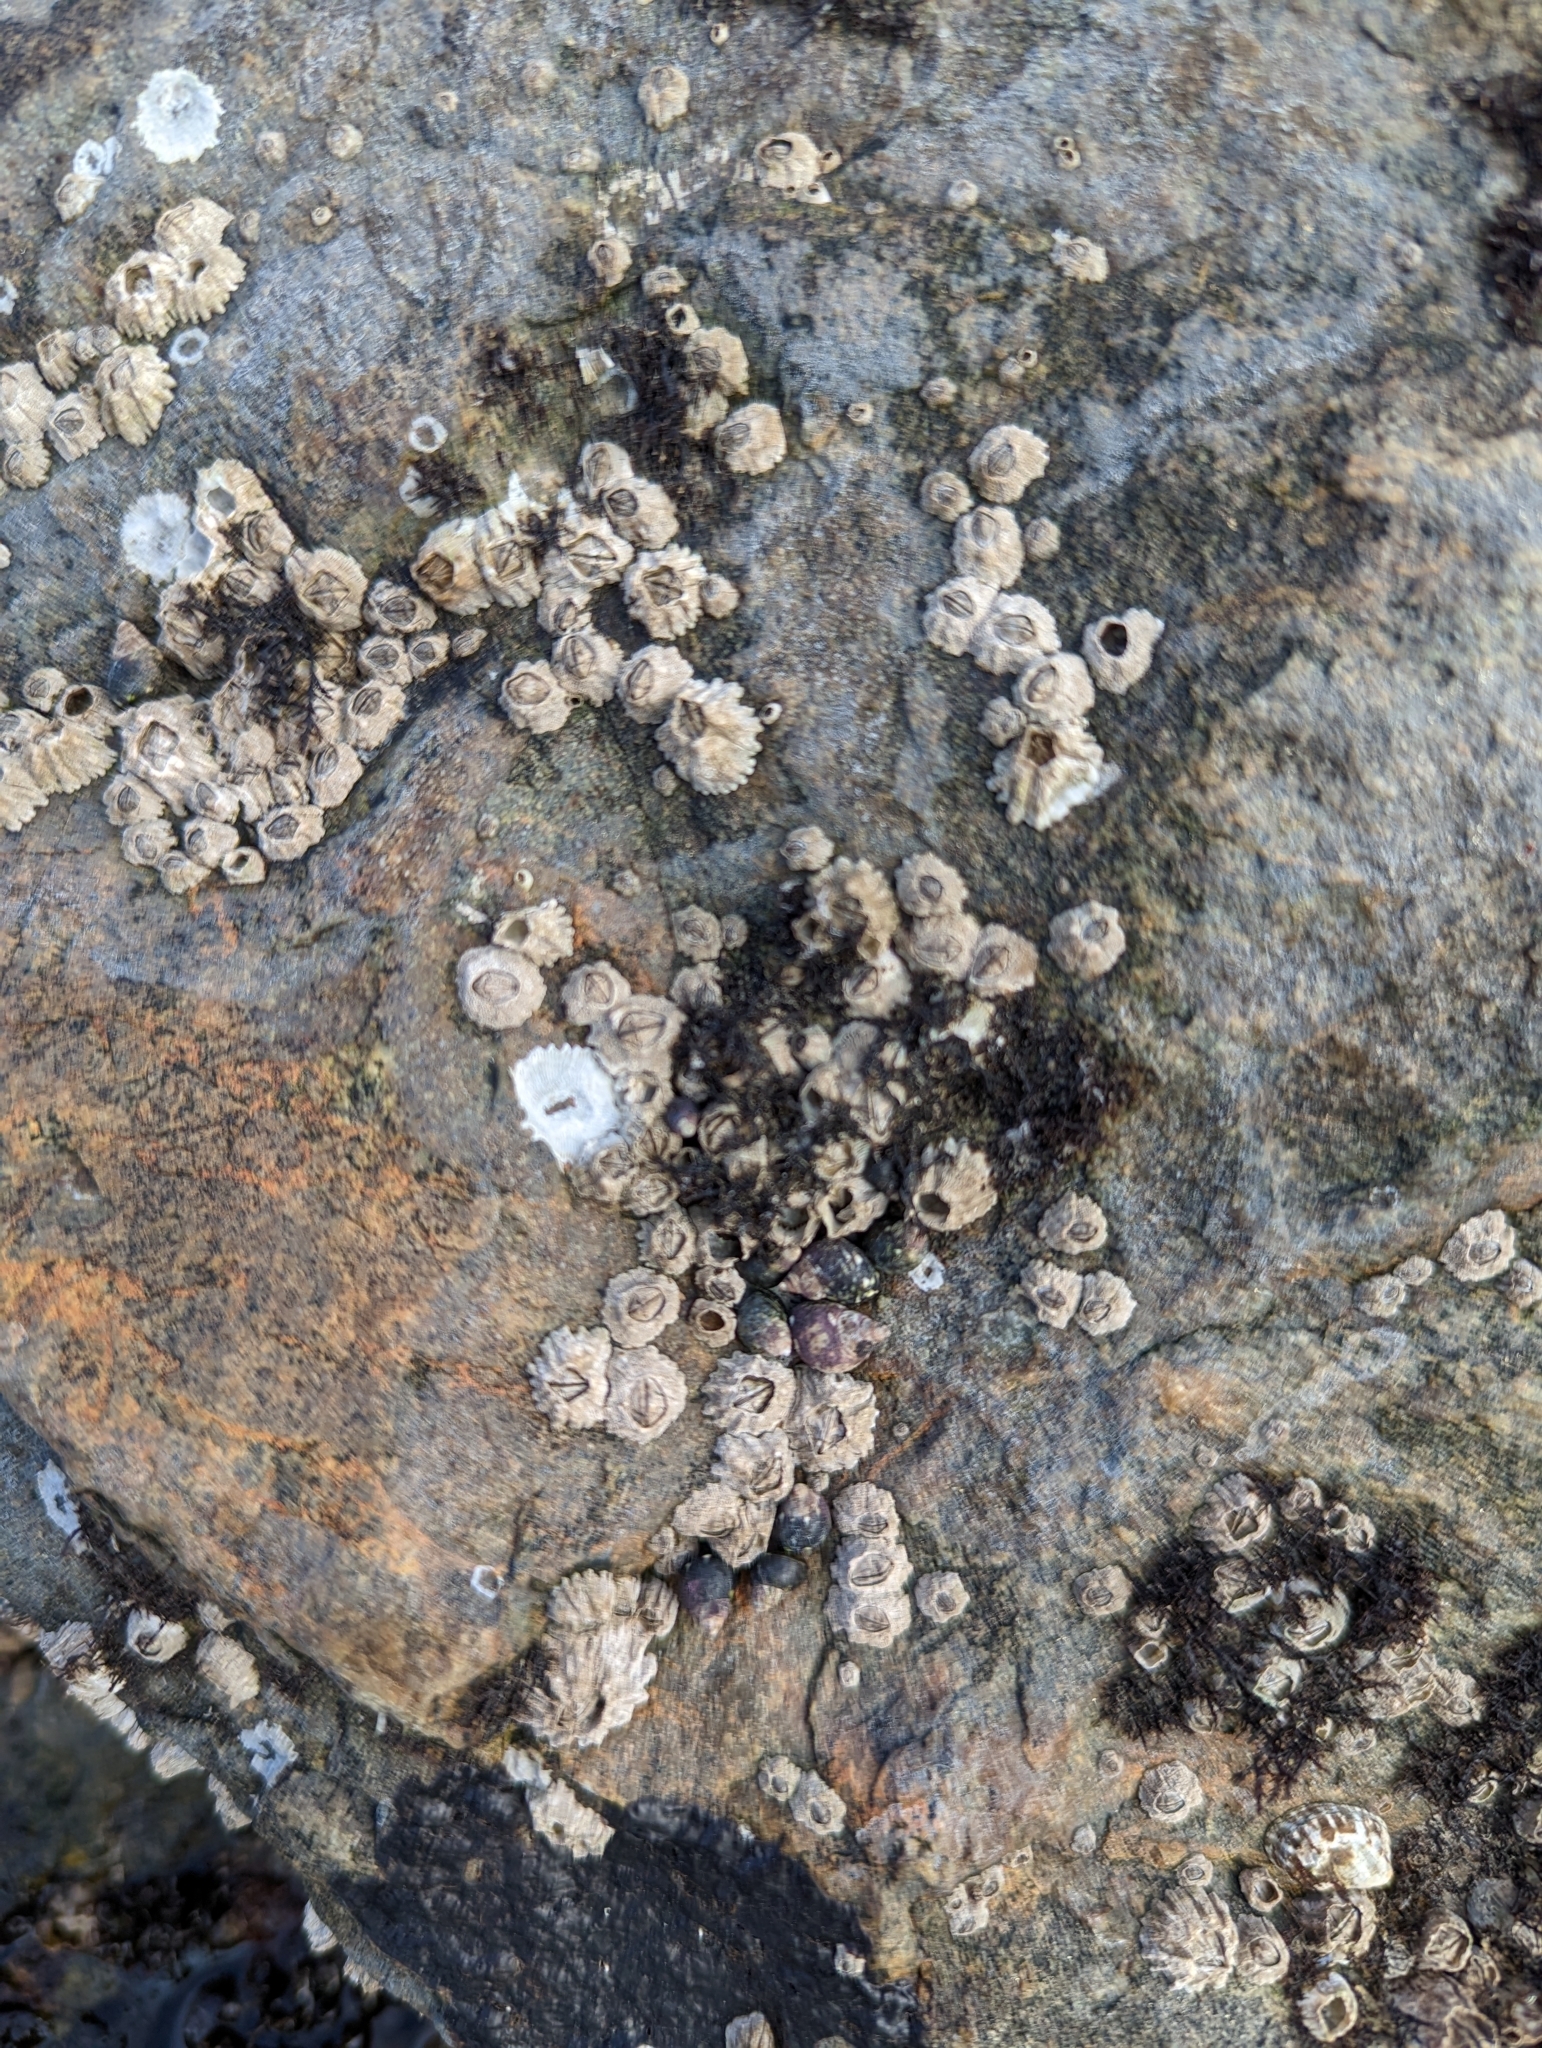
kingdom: Animalia
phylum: Arthropoda
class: Maxillopoda
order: Sessilia
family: Balanidae
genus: Balanus
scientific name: Balanus glandula
